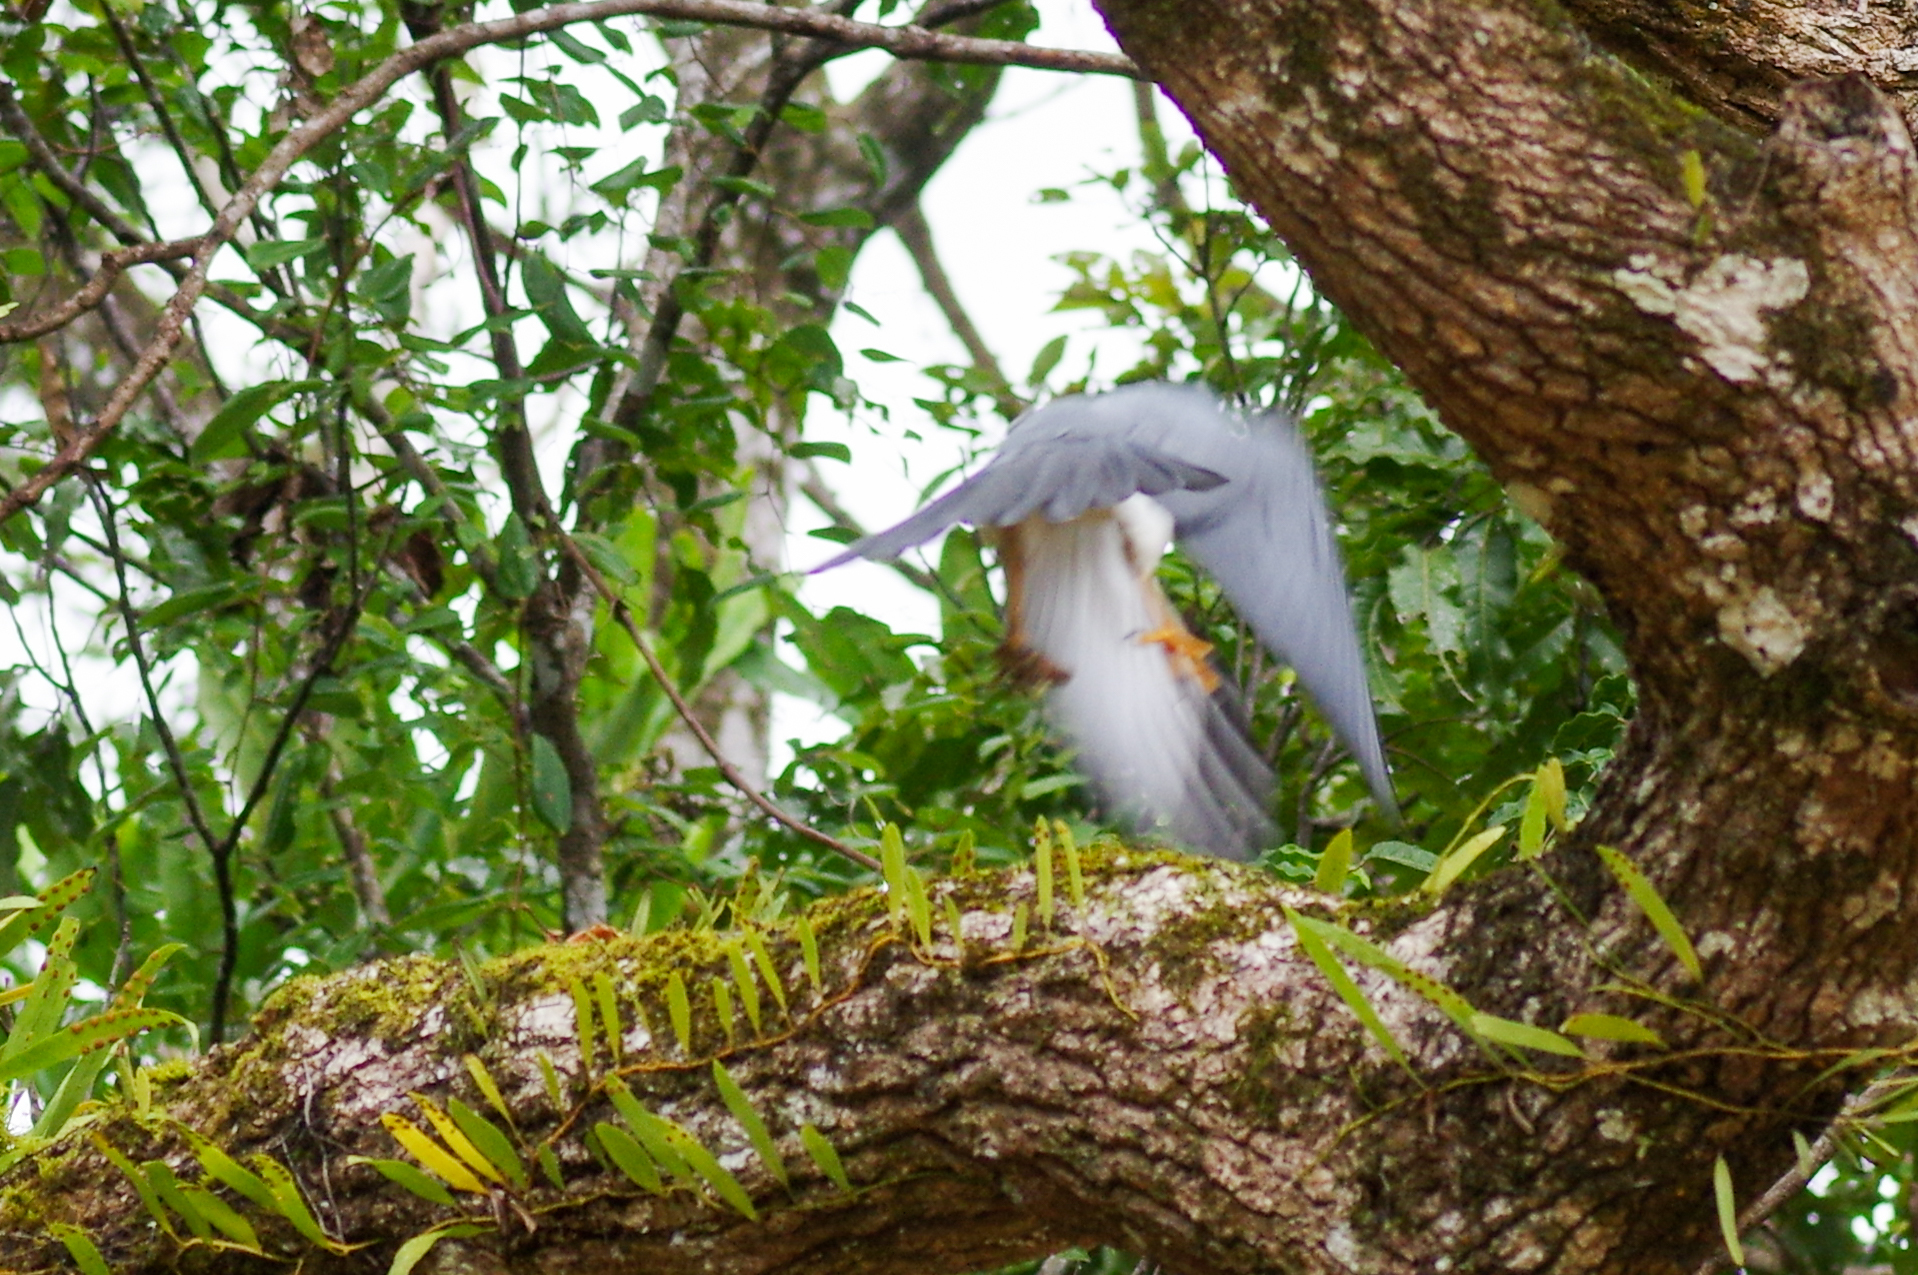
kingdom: Animalia
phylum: Chordata
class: Aves
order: Accipitriformes
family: Accipitridae
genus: Accipiter
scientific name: Accipiter haplochrous
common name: White-bellied goshawk
